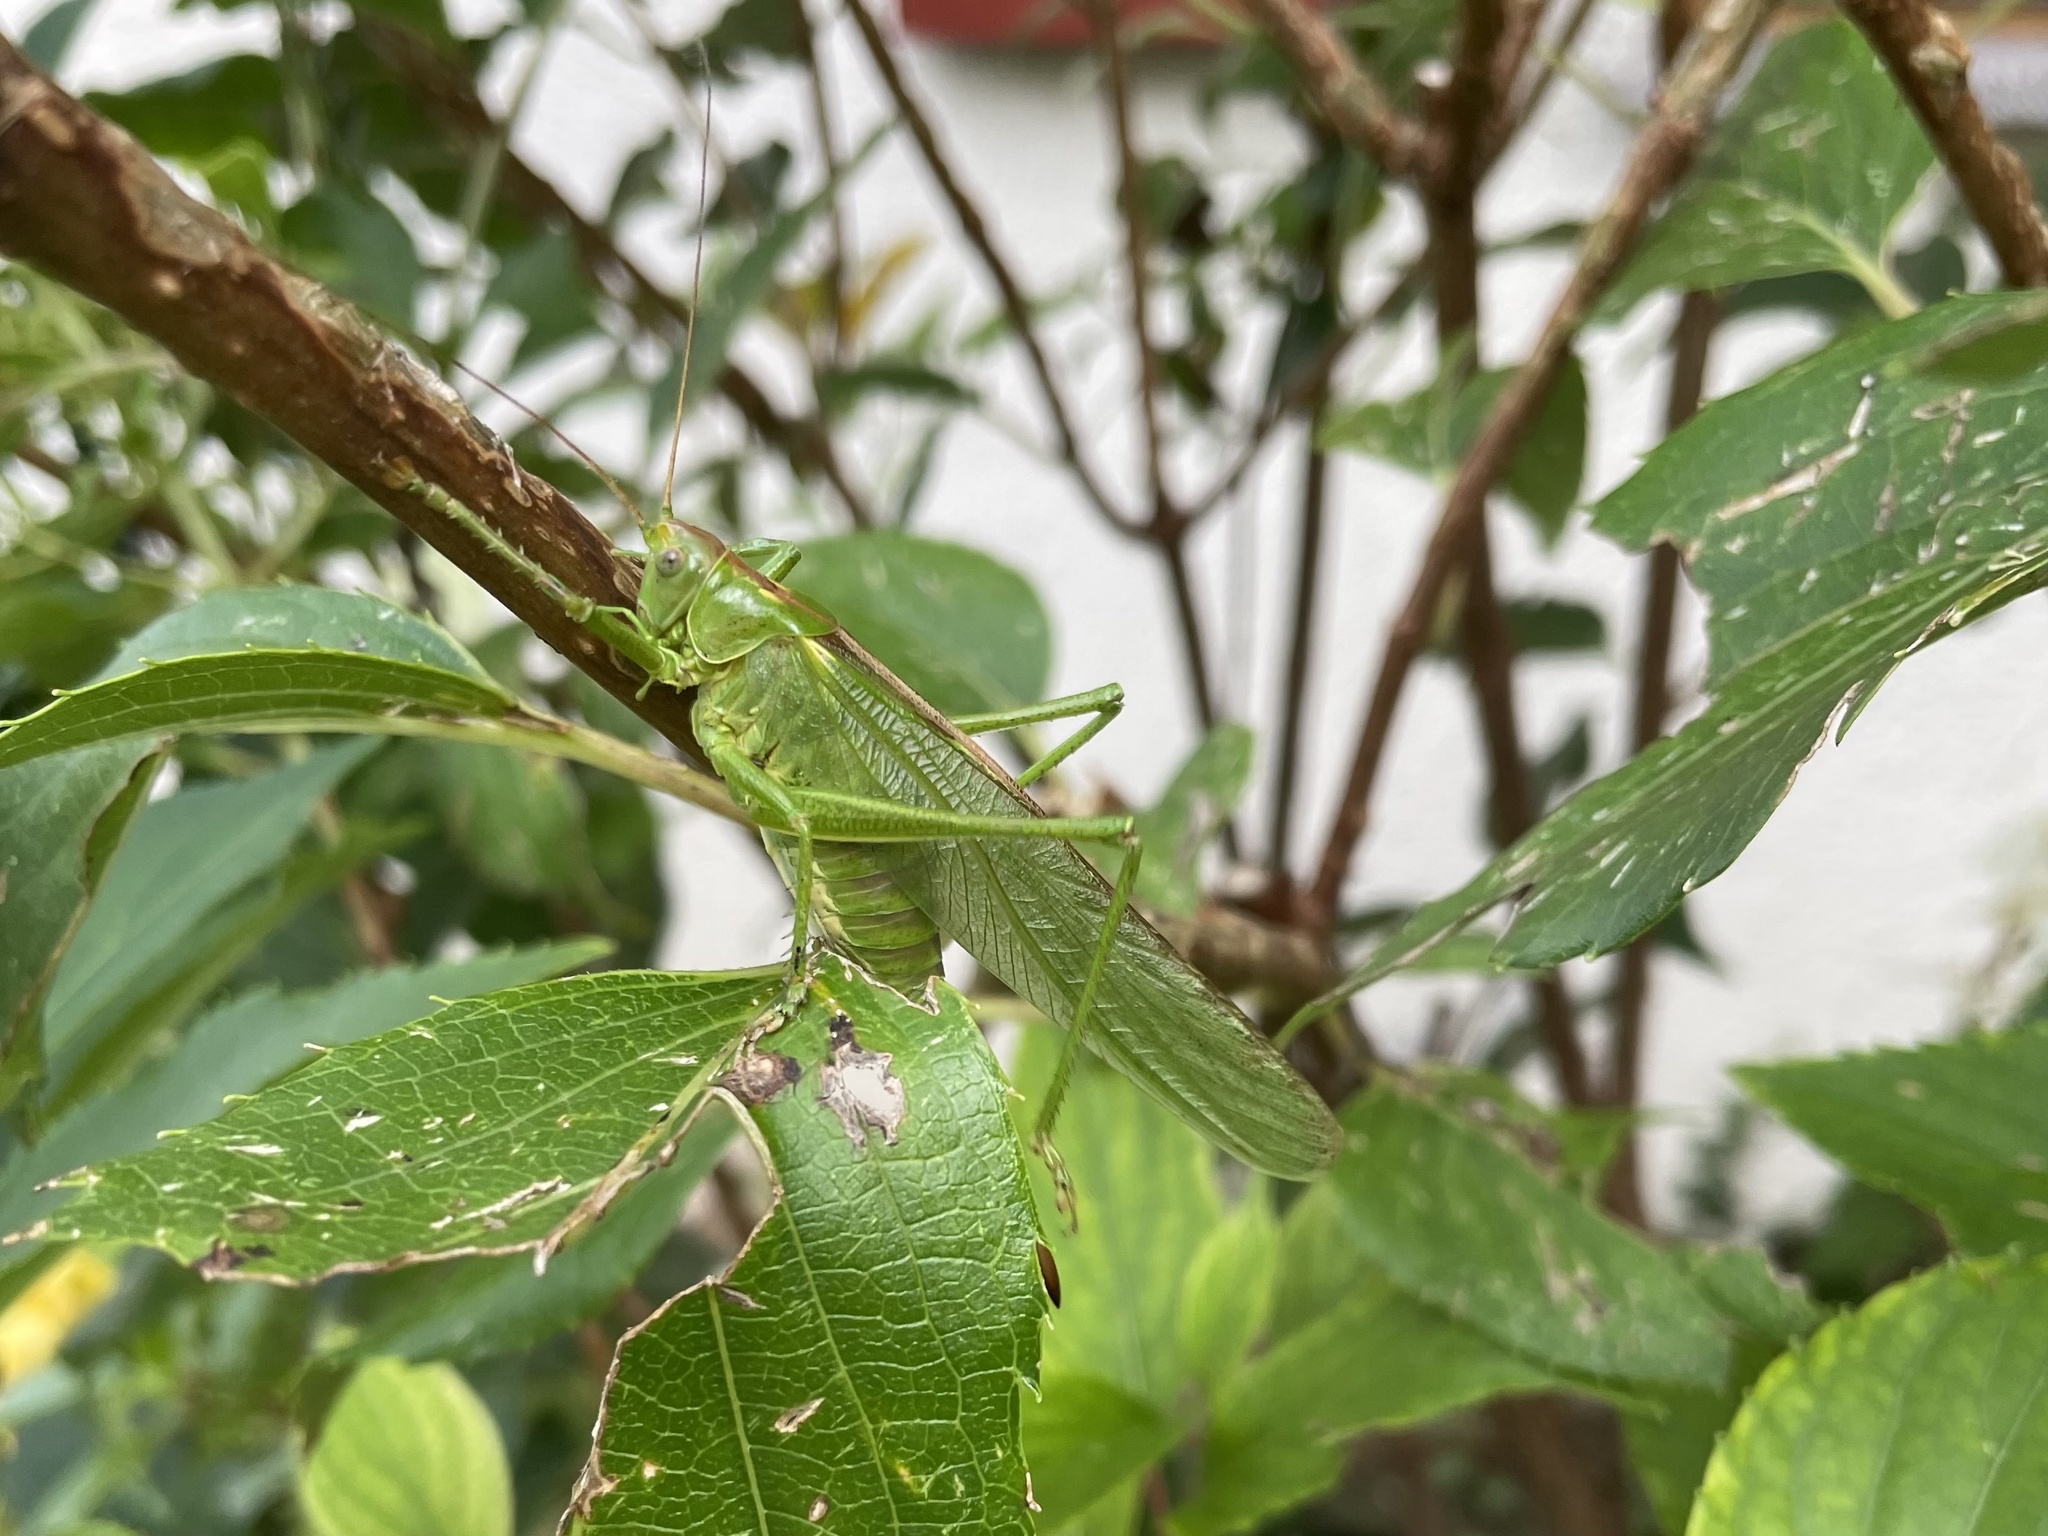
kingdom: Animalia
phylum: Arthropoda
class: Insecta
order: Orthoptera
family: Tettigoniidae
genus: Tettigonia
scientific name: Tettigonia viridissima
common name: Great green bush-cricket
